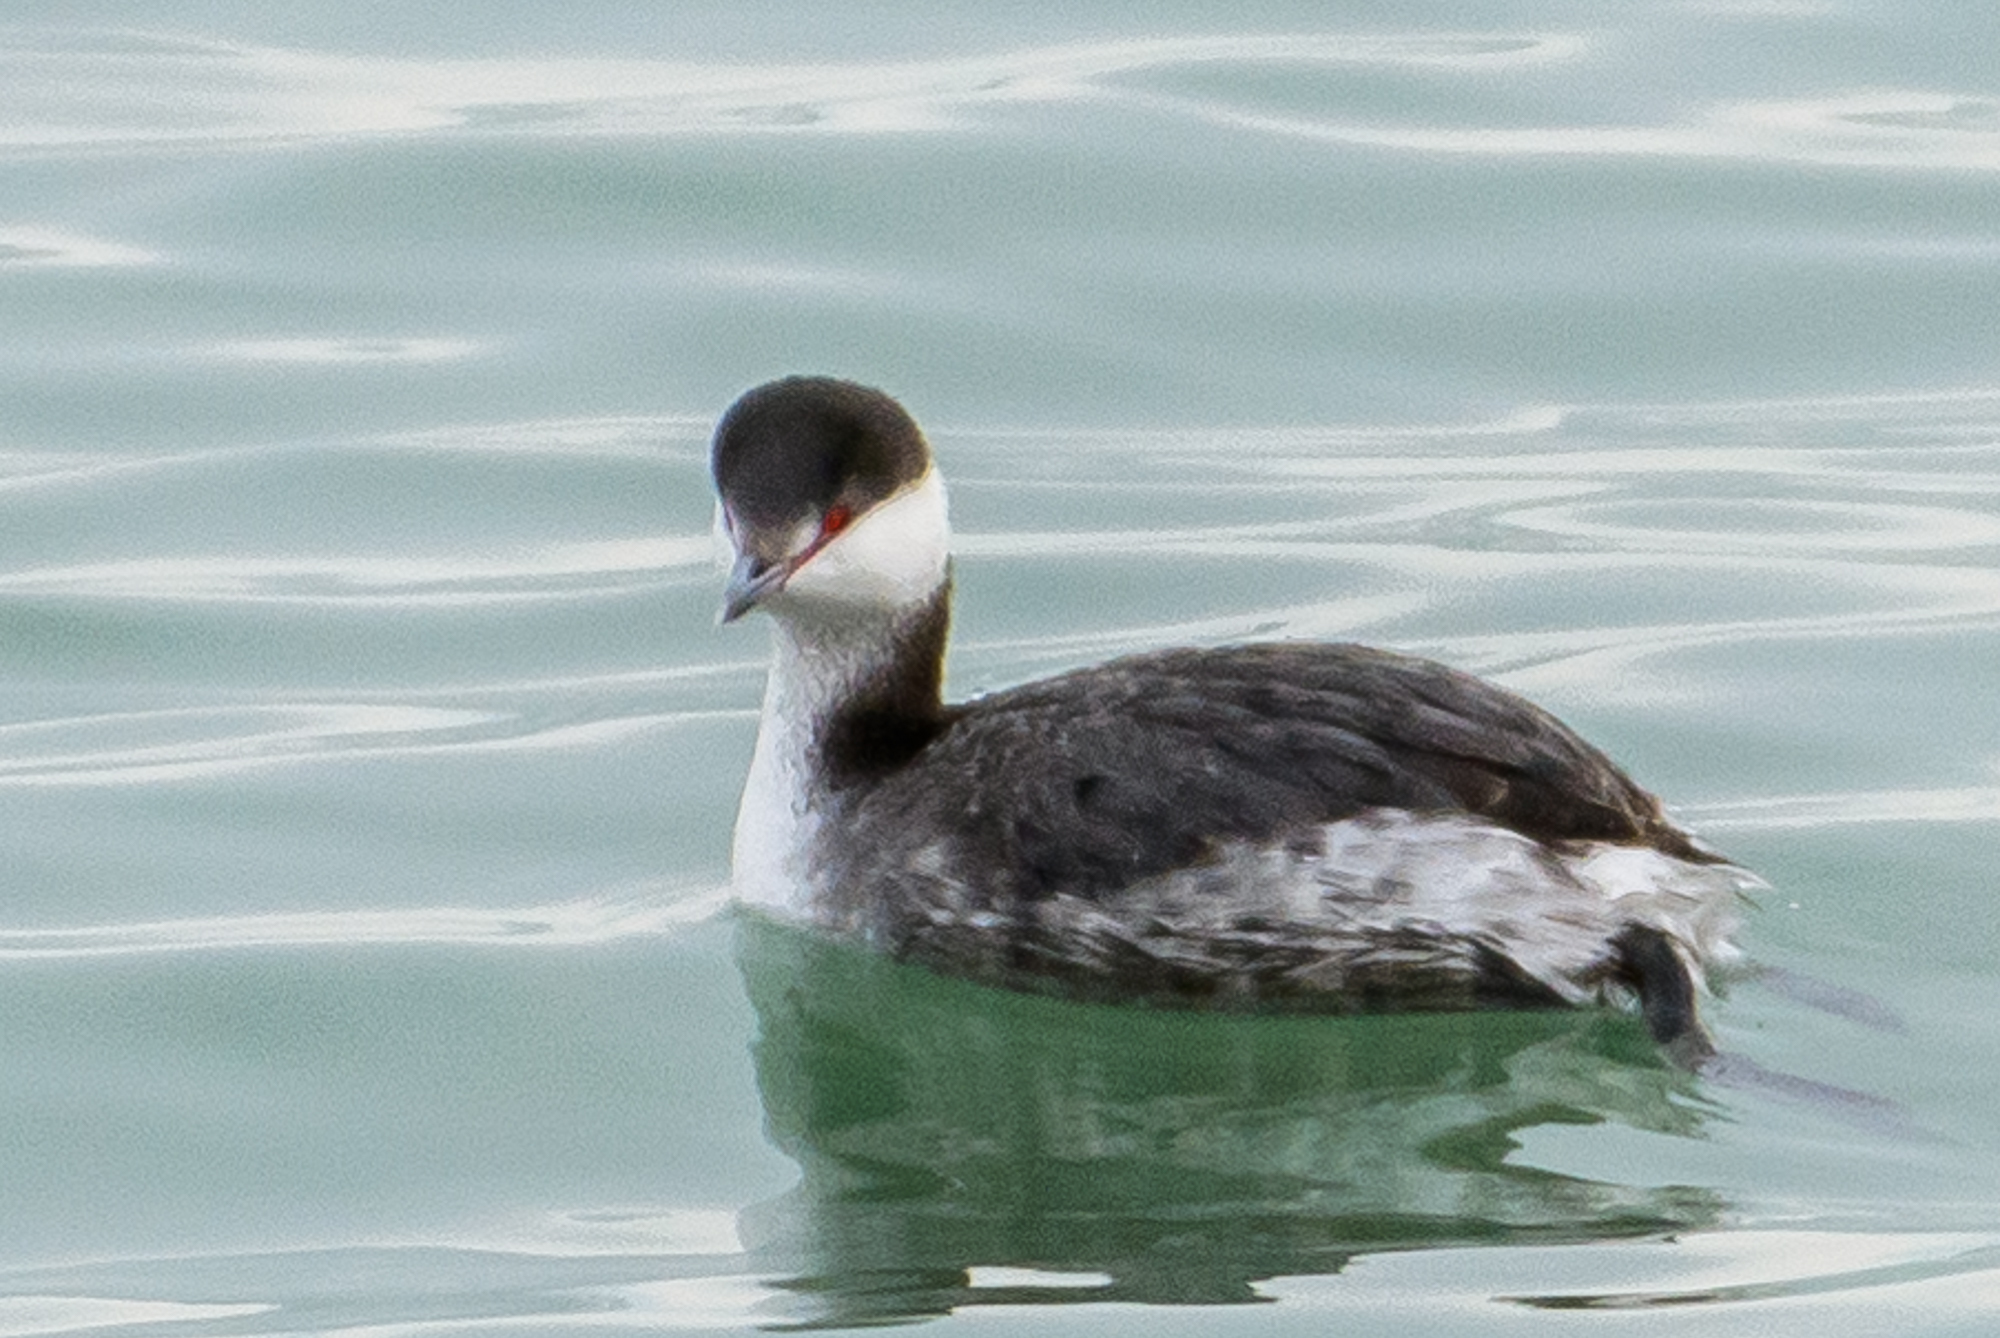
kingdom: Animalia
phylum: Chordata
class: Aves
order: Podicipediformes
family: Podicipedidae
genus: Podiceps
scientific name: Podiceps auritus
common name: Horned grebe
